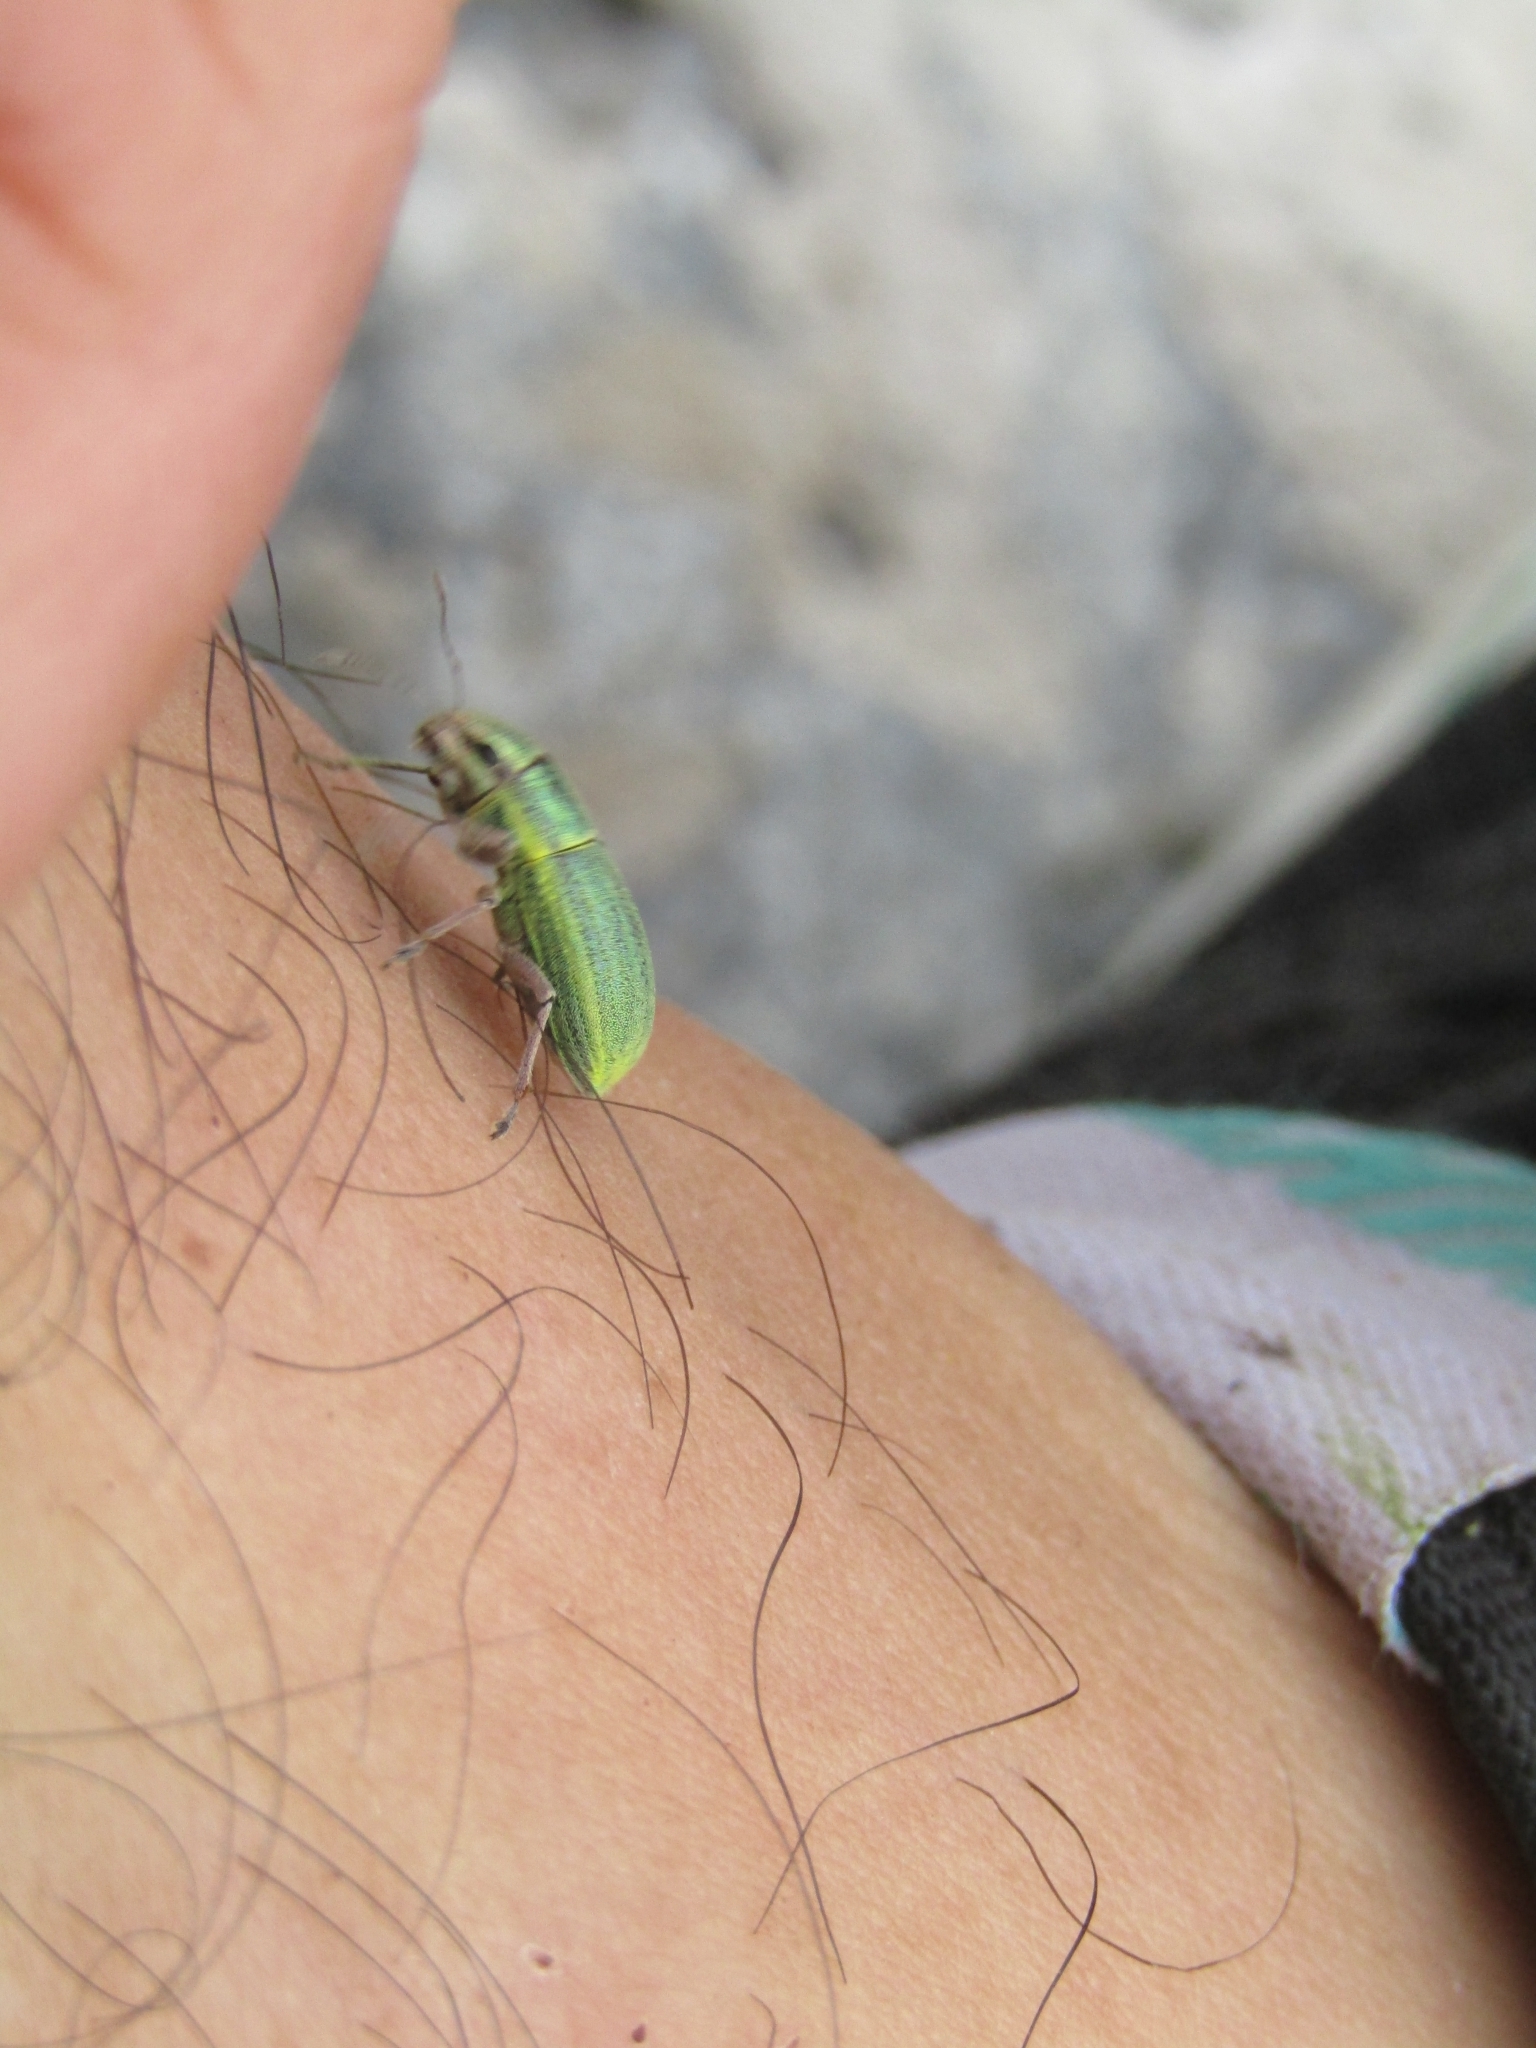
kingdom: Animalia
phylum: Arthropoda
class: Insecta
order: Coleoptera
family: Curculionidae
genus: Pantomorus
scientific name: Pantomorus viridisquamosus
